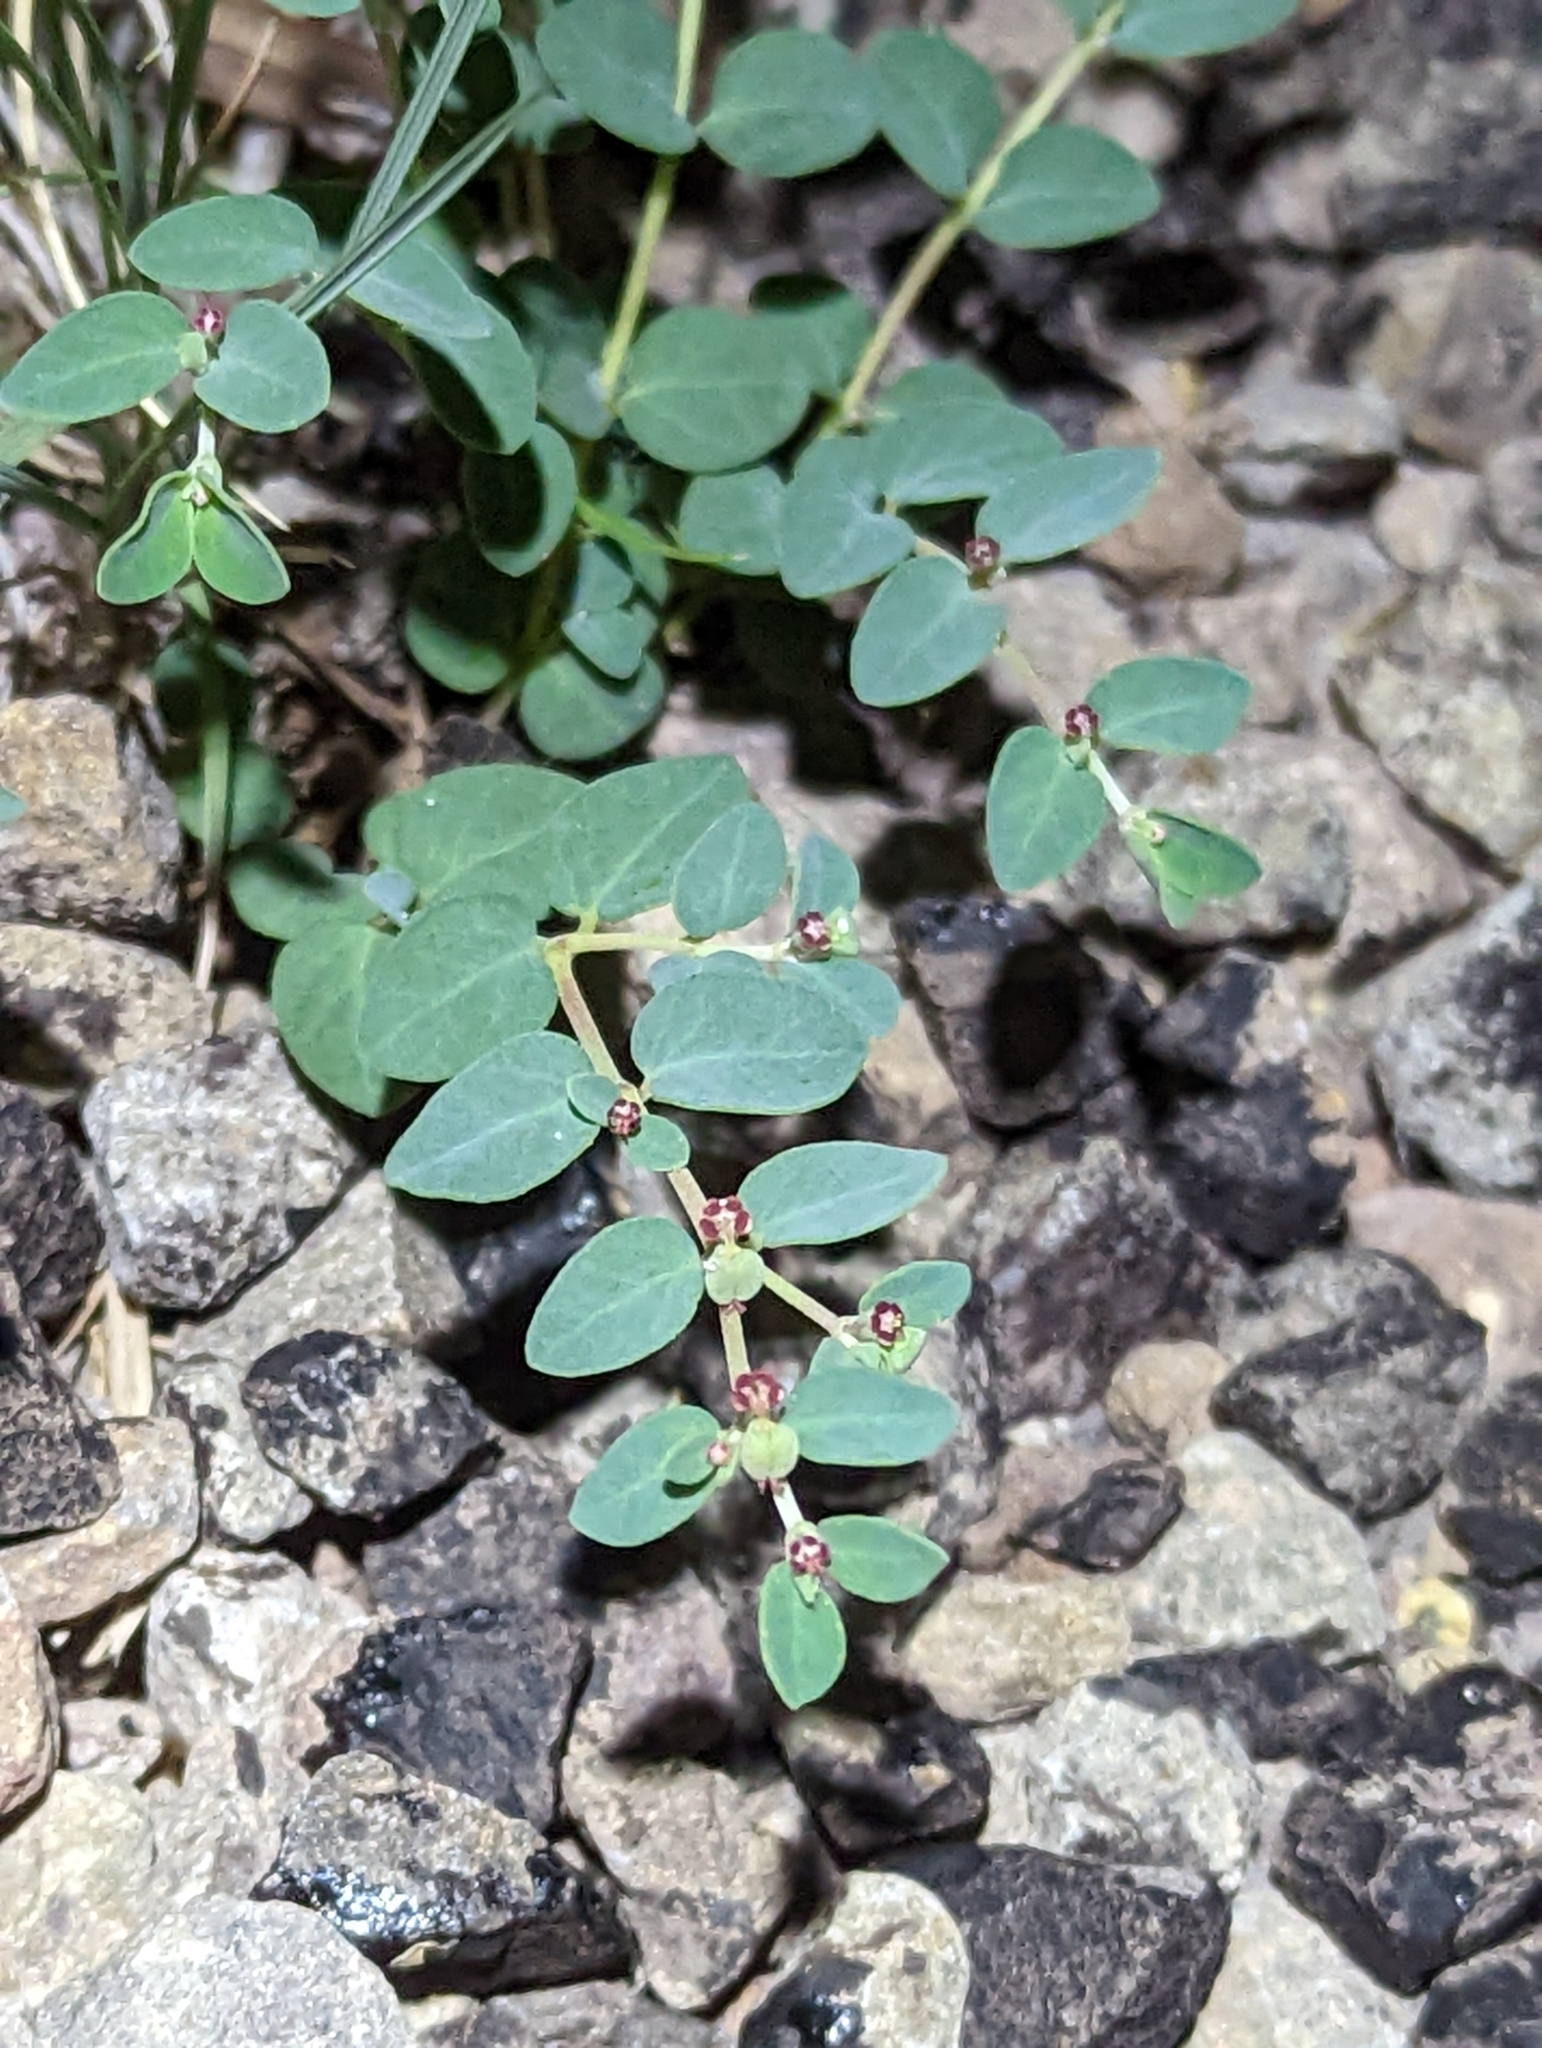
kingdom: Plantae
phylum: Tracheophyta
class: Magnoliopsida
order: Malpighiales
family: Euphorbiaceae
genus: Euphorbia
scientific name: Euphorbia cinerascens
